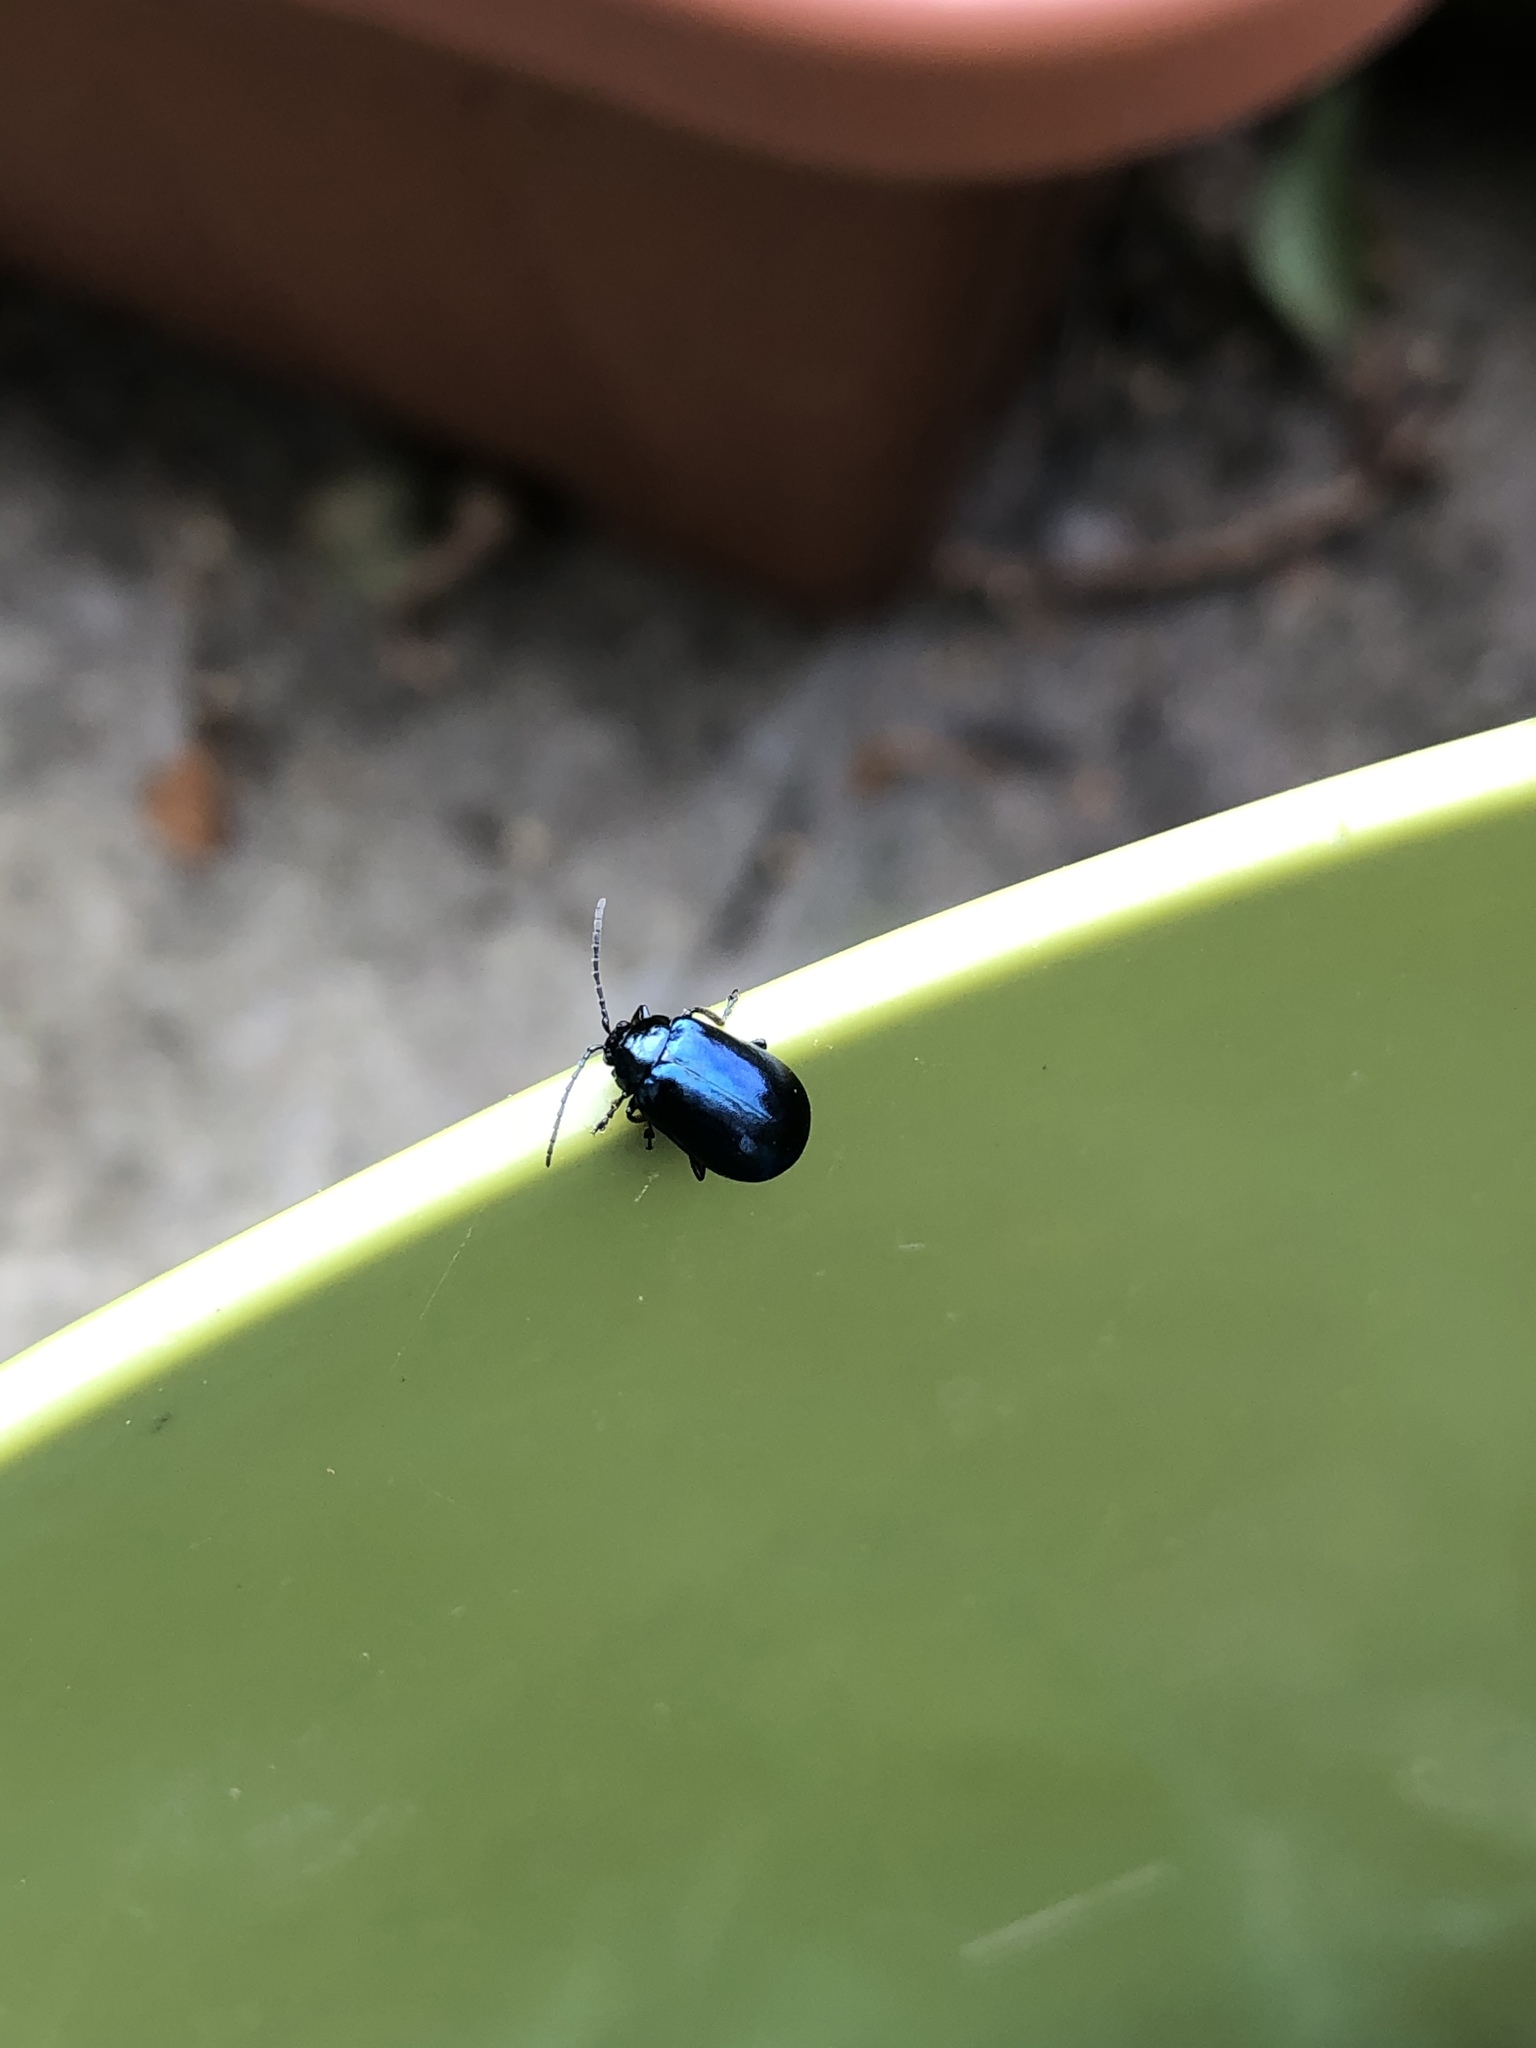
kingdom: Animalia
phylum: Arthropoda
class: Insecta
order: Coleoptera
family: Chrysomelidae
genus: Agelastica
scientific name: Agelastica alni
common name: Alder leaf beetle
